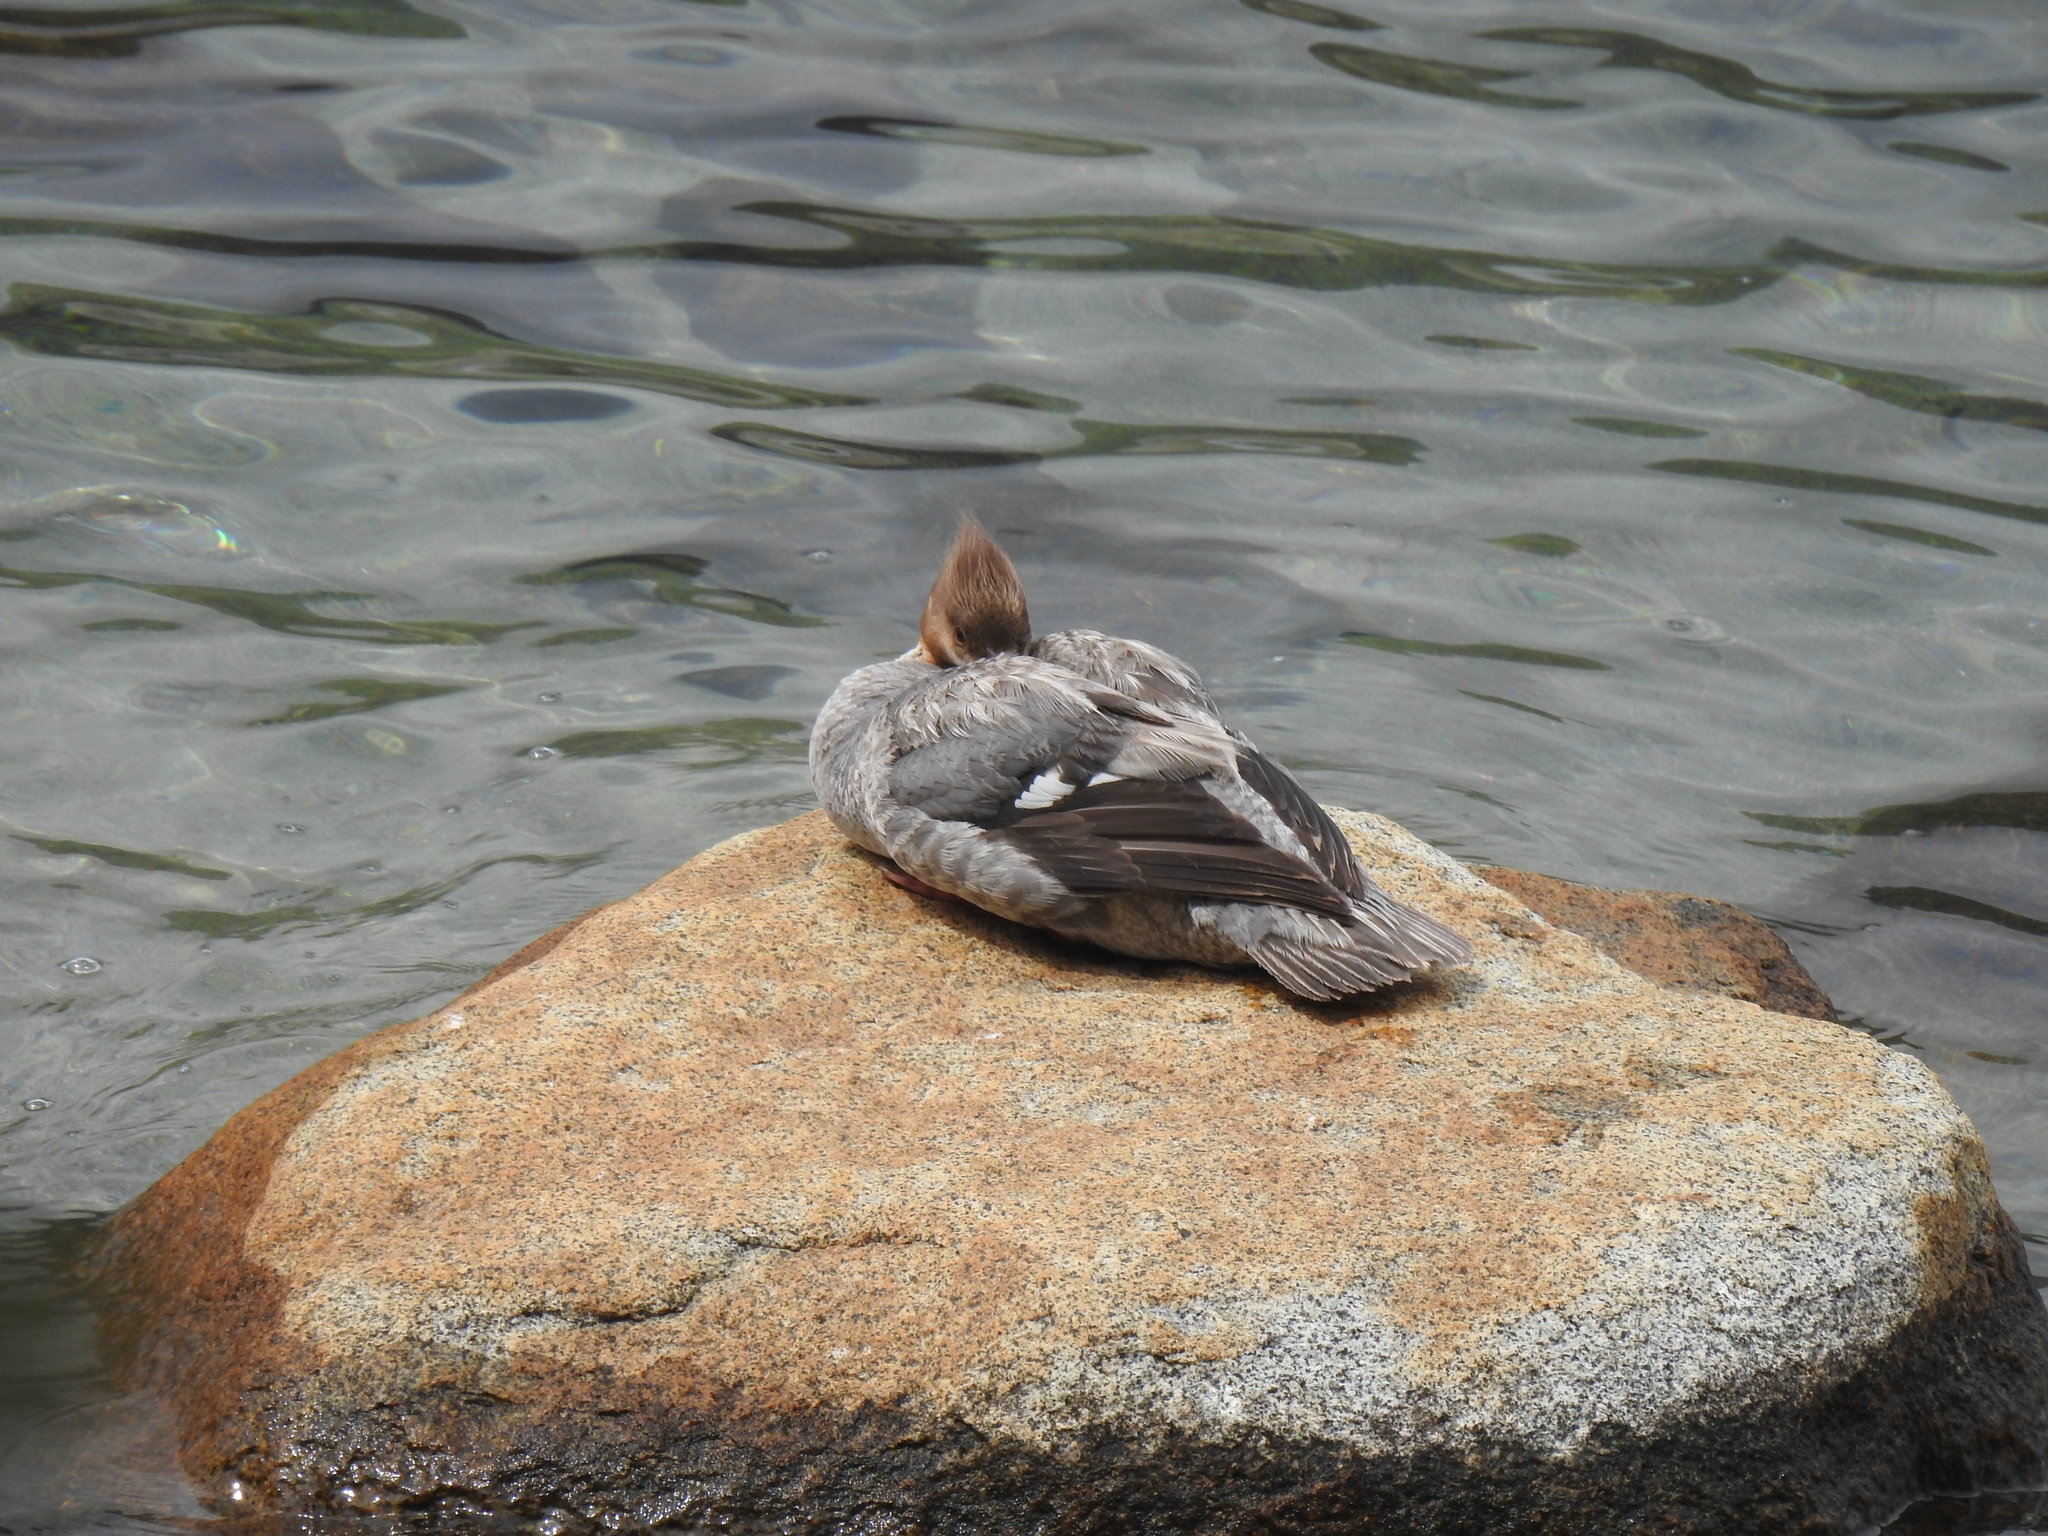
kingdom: Animalia
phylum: Chordata
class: Aves
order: Anseriformes
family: Anatidae
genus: Mergus
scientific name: Mergus merganser
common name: Common merganser
